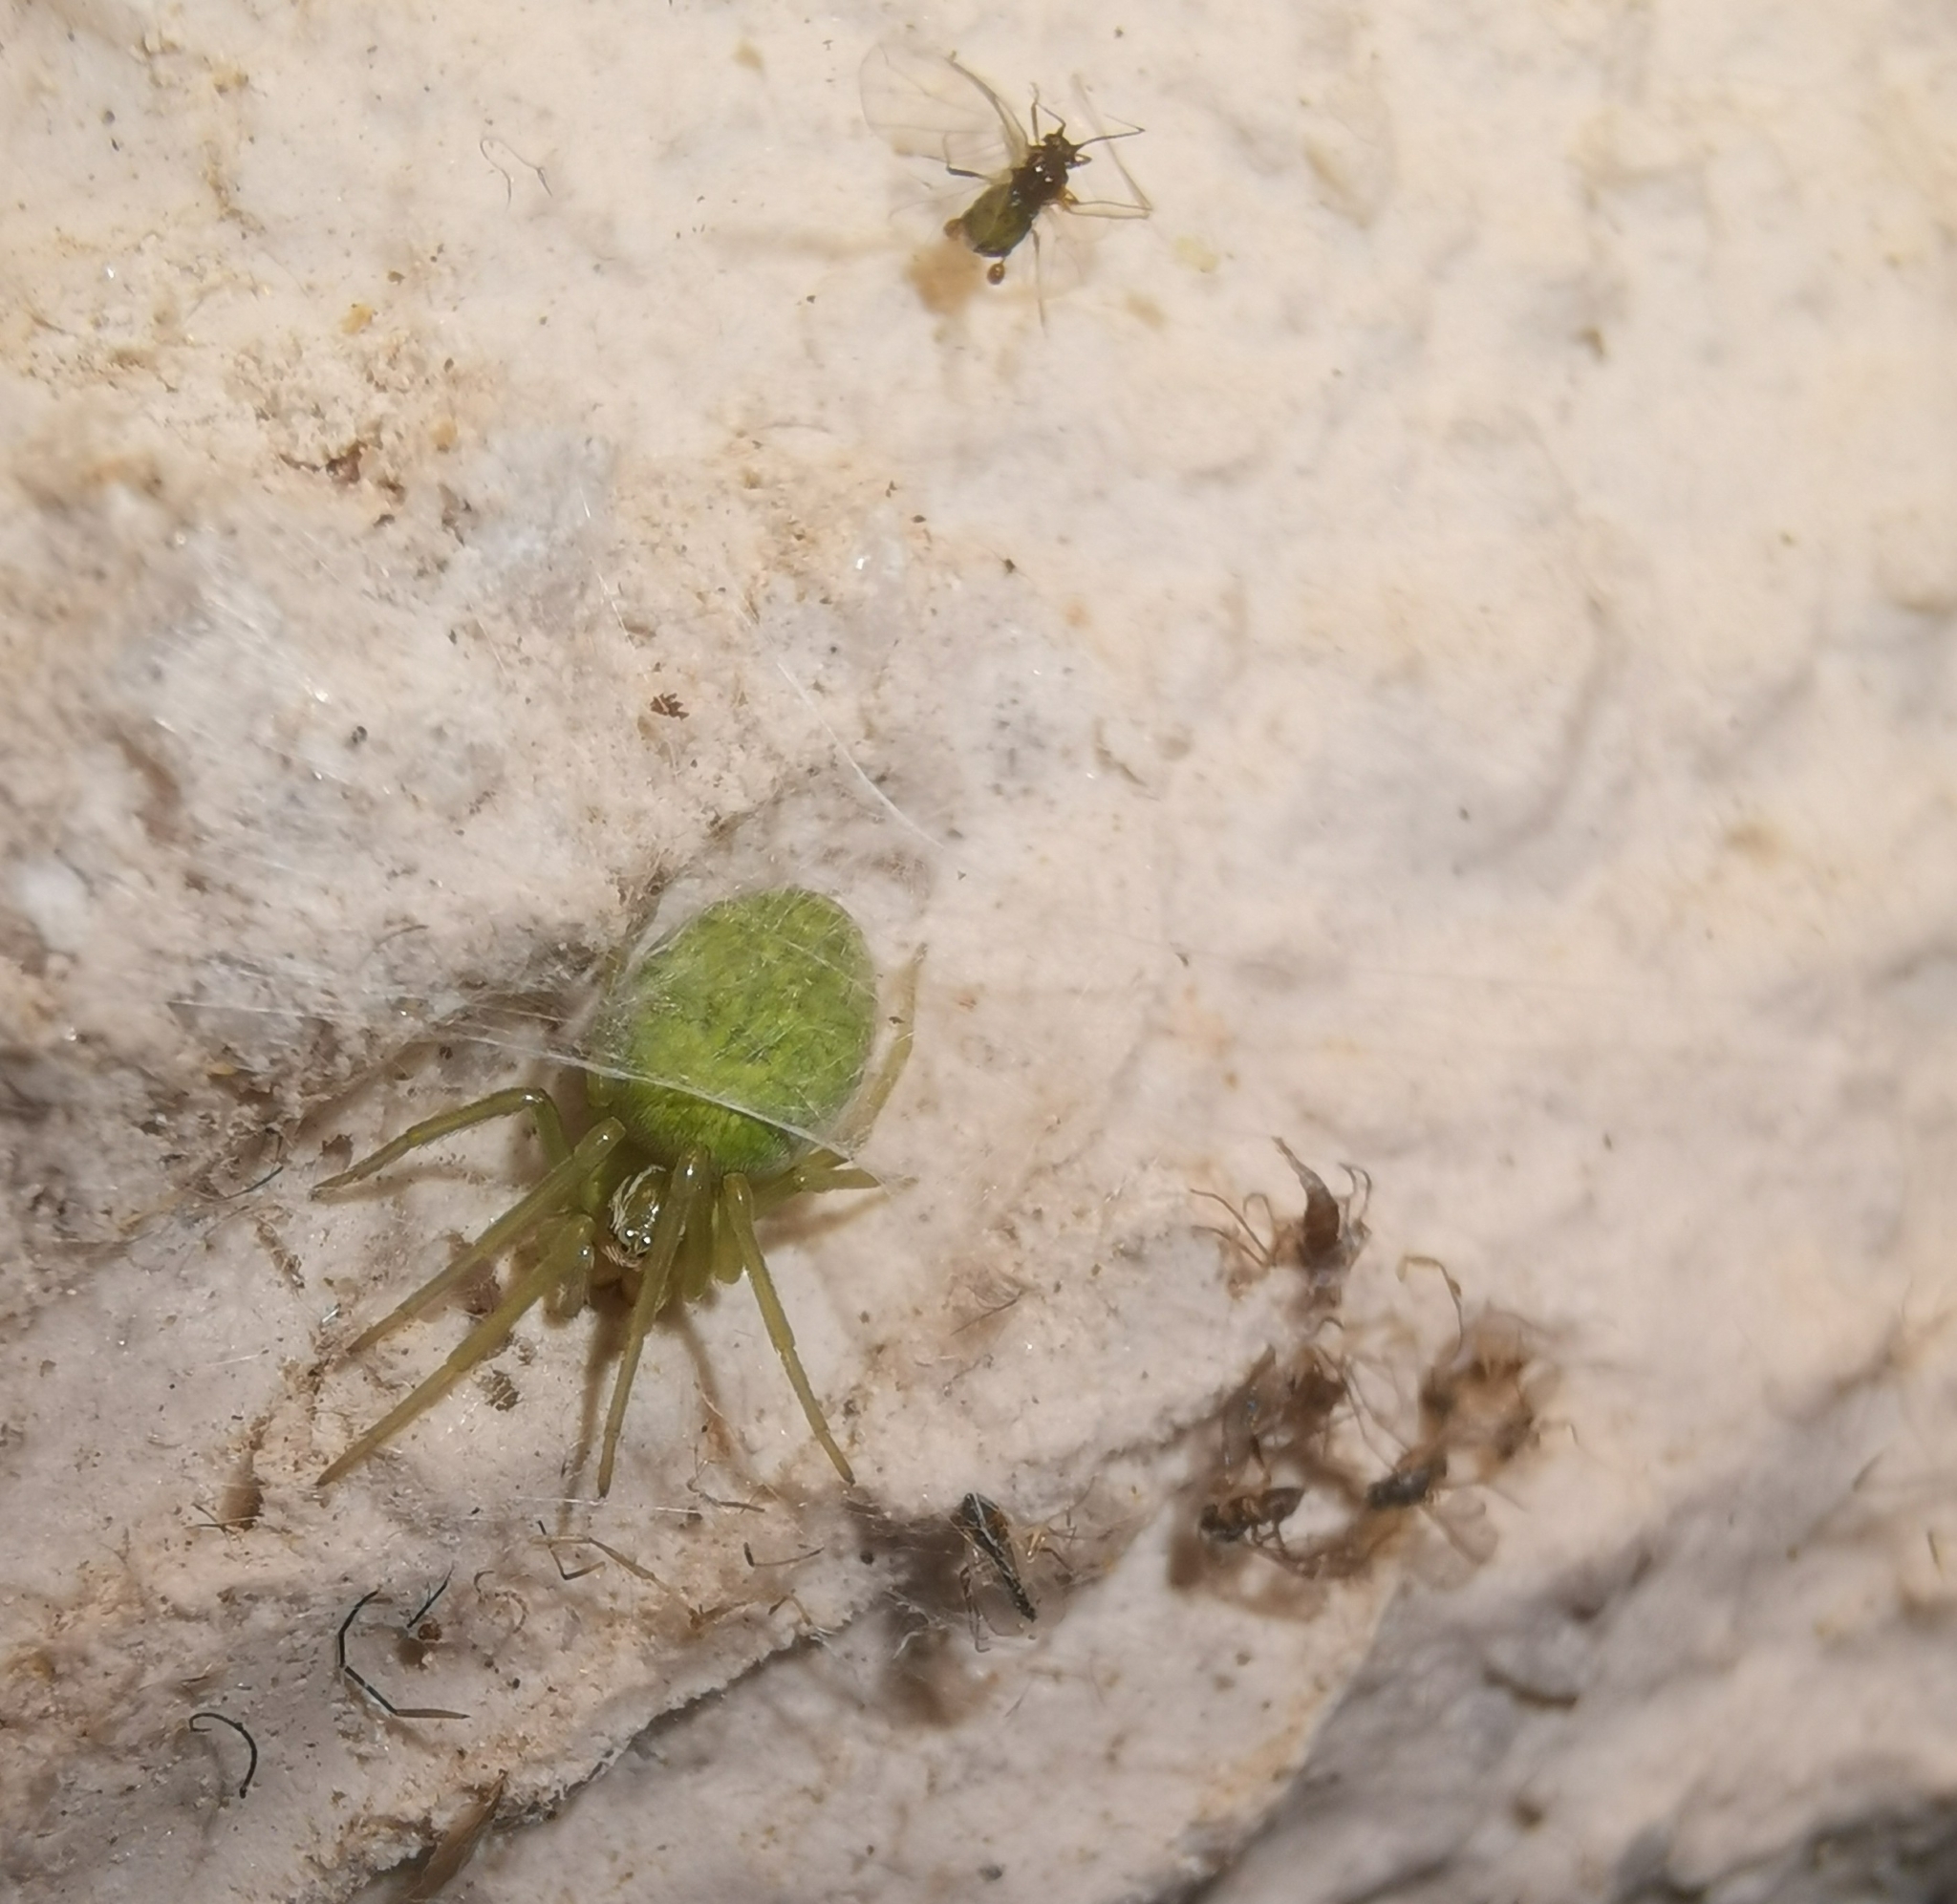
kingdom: Animalia
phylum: Arthropoda
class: Arachnida
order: Araneae
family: Dictynidae
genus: Nigma
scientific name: Nigma walckenaeri
